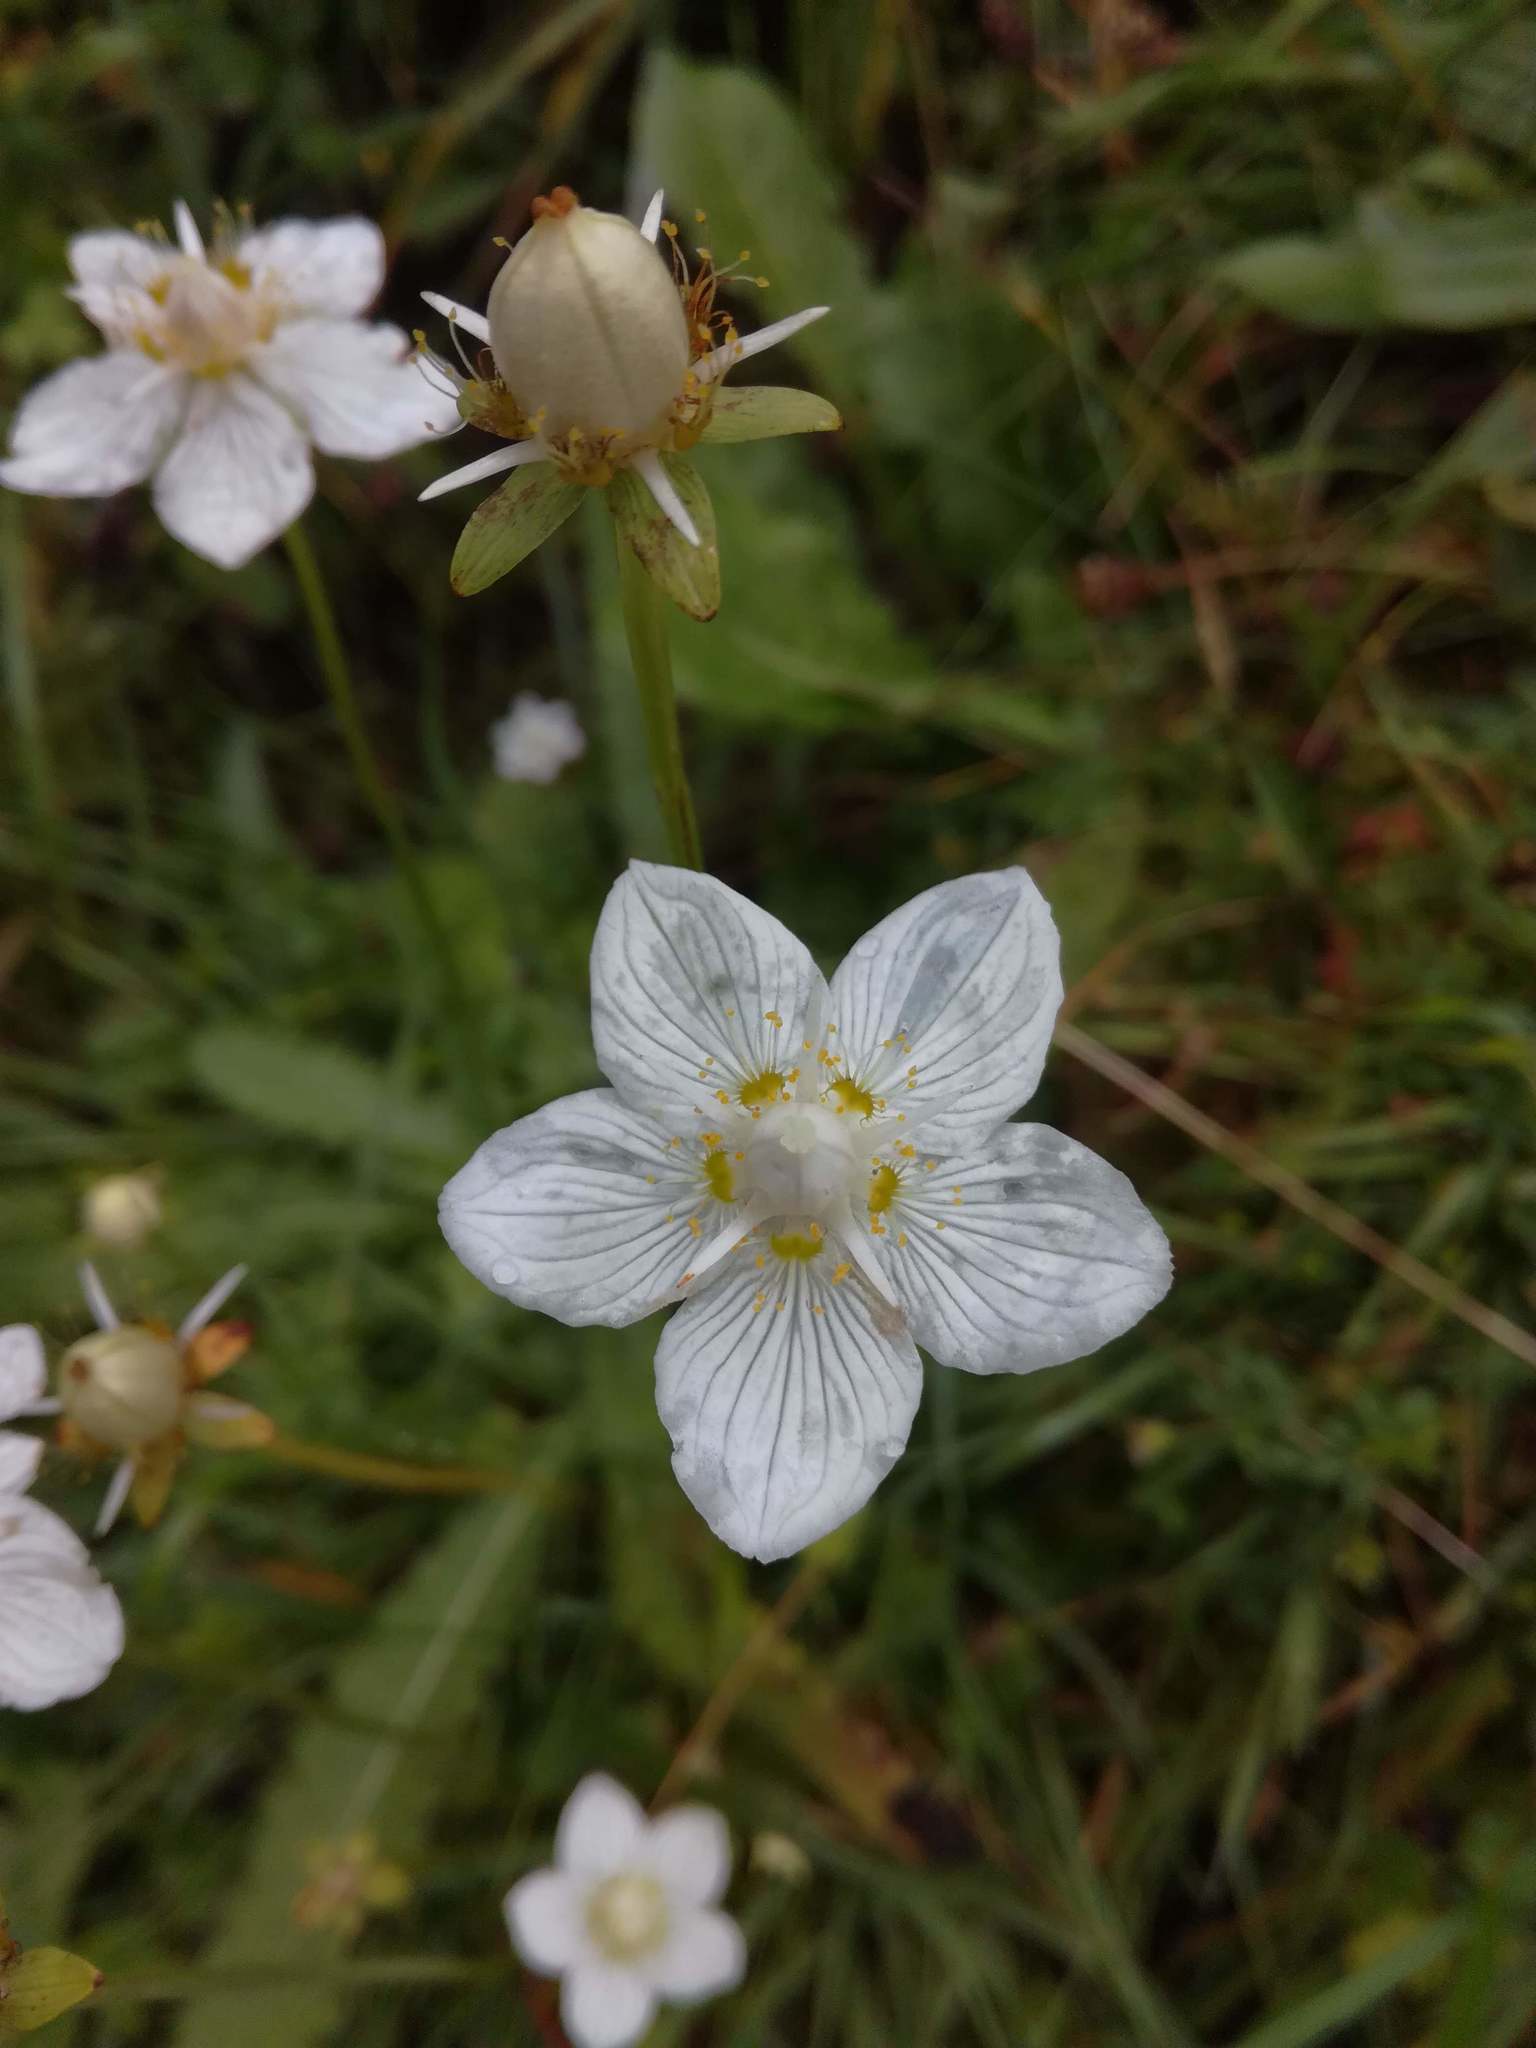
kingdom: Plantae
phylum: Tracheophyta
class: Magnoliopsida
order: Celastrales
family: Parnassiaceae
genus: Parnassia
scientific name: Parnassia palustris
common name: Grass-of-parnassus
